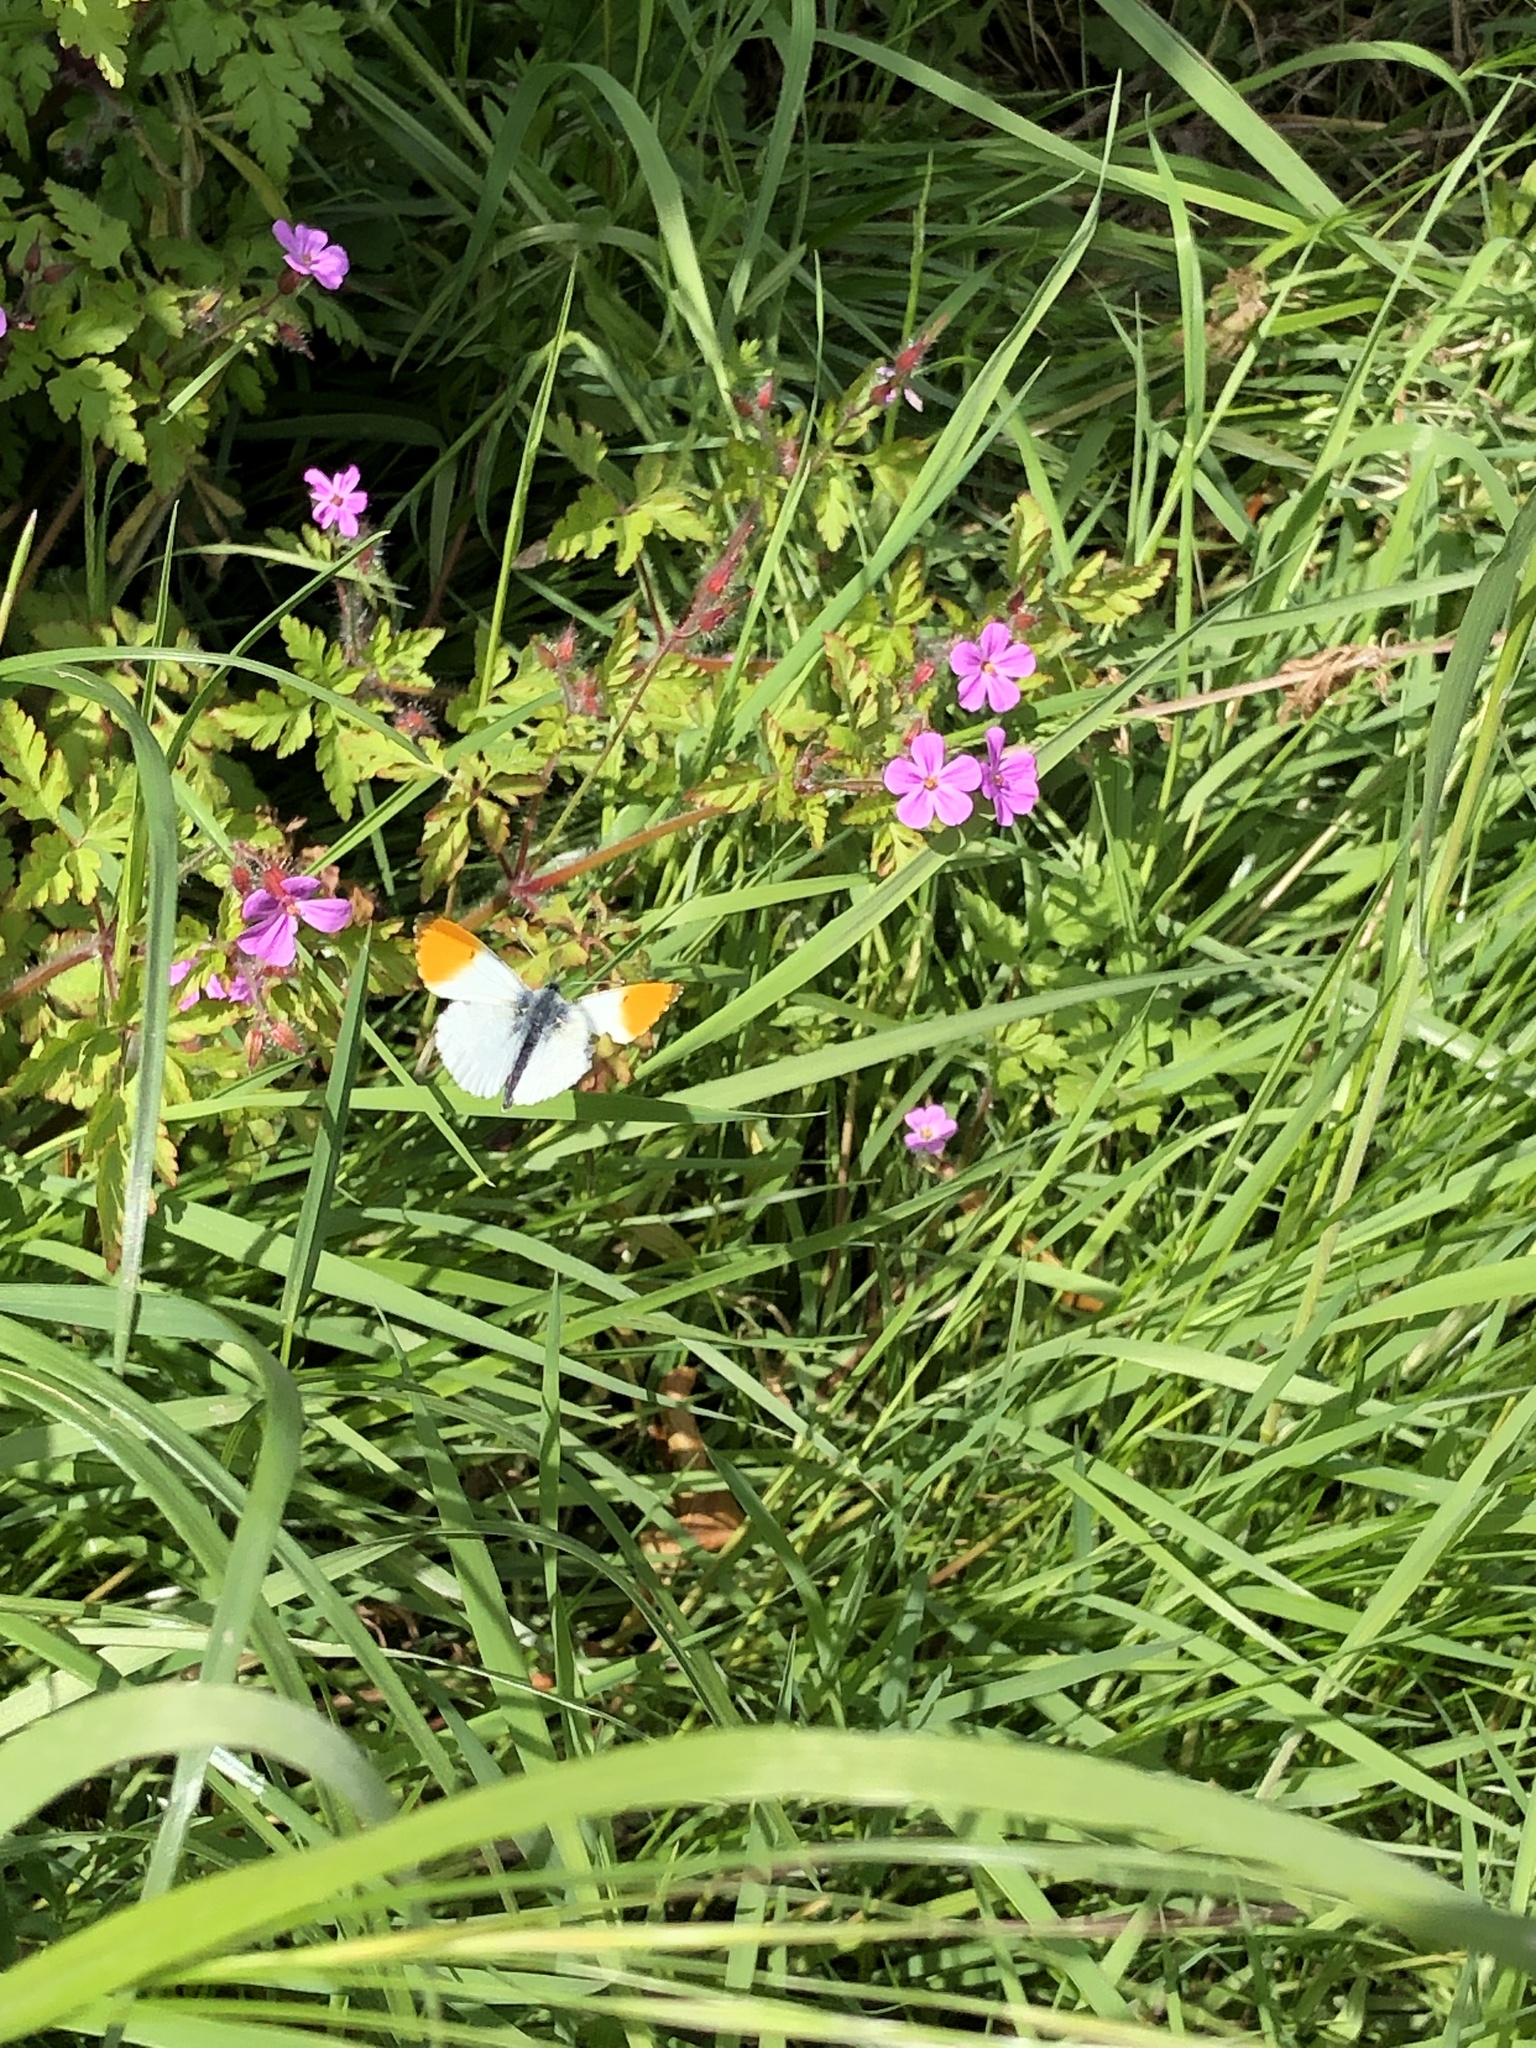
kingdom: Animalia
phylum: Arthropoda
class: Insecta
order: Lepidoptera
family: Pieridae
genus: Anthocharis
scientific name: Anthocharis cardamines
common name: Orange-tip
